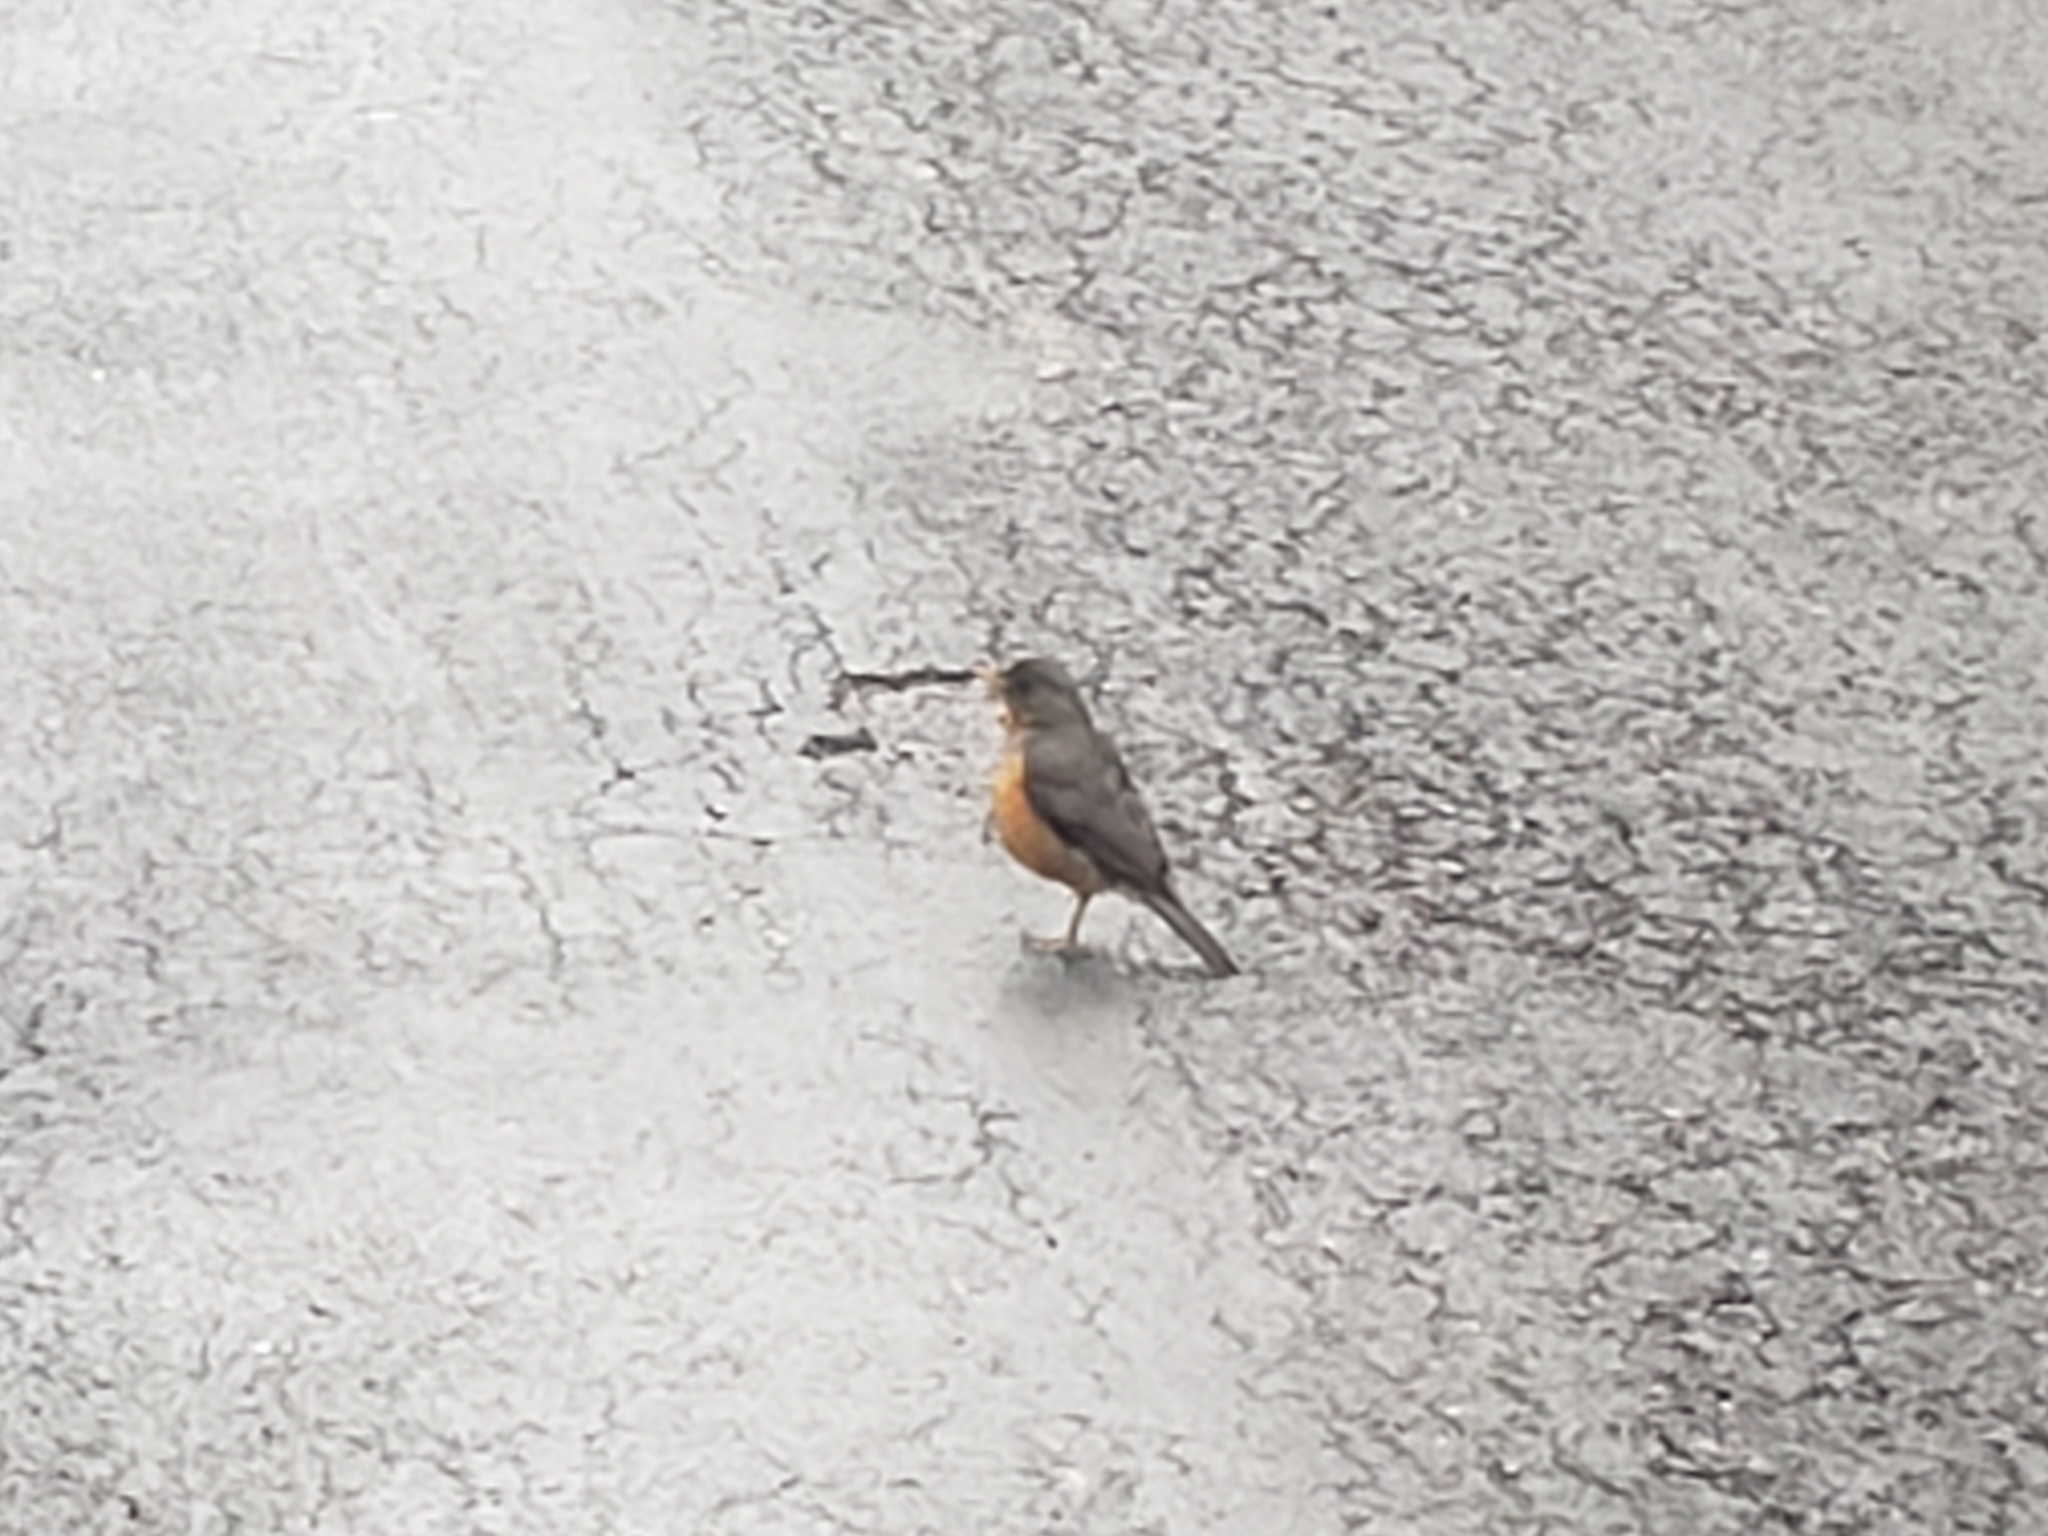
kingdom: Animalia
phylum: Chordata
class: Aves
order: Passeriformes
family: Turdidae
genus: Turdus
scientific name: Turdus olivaceus
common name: Olive thrush
